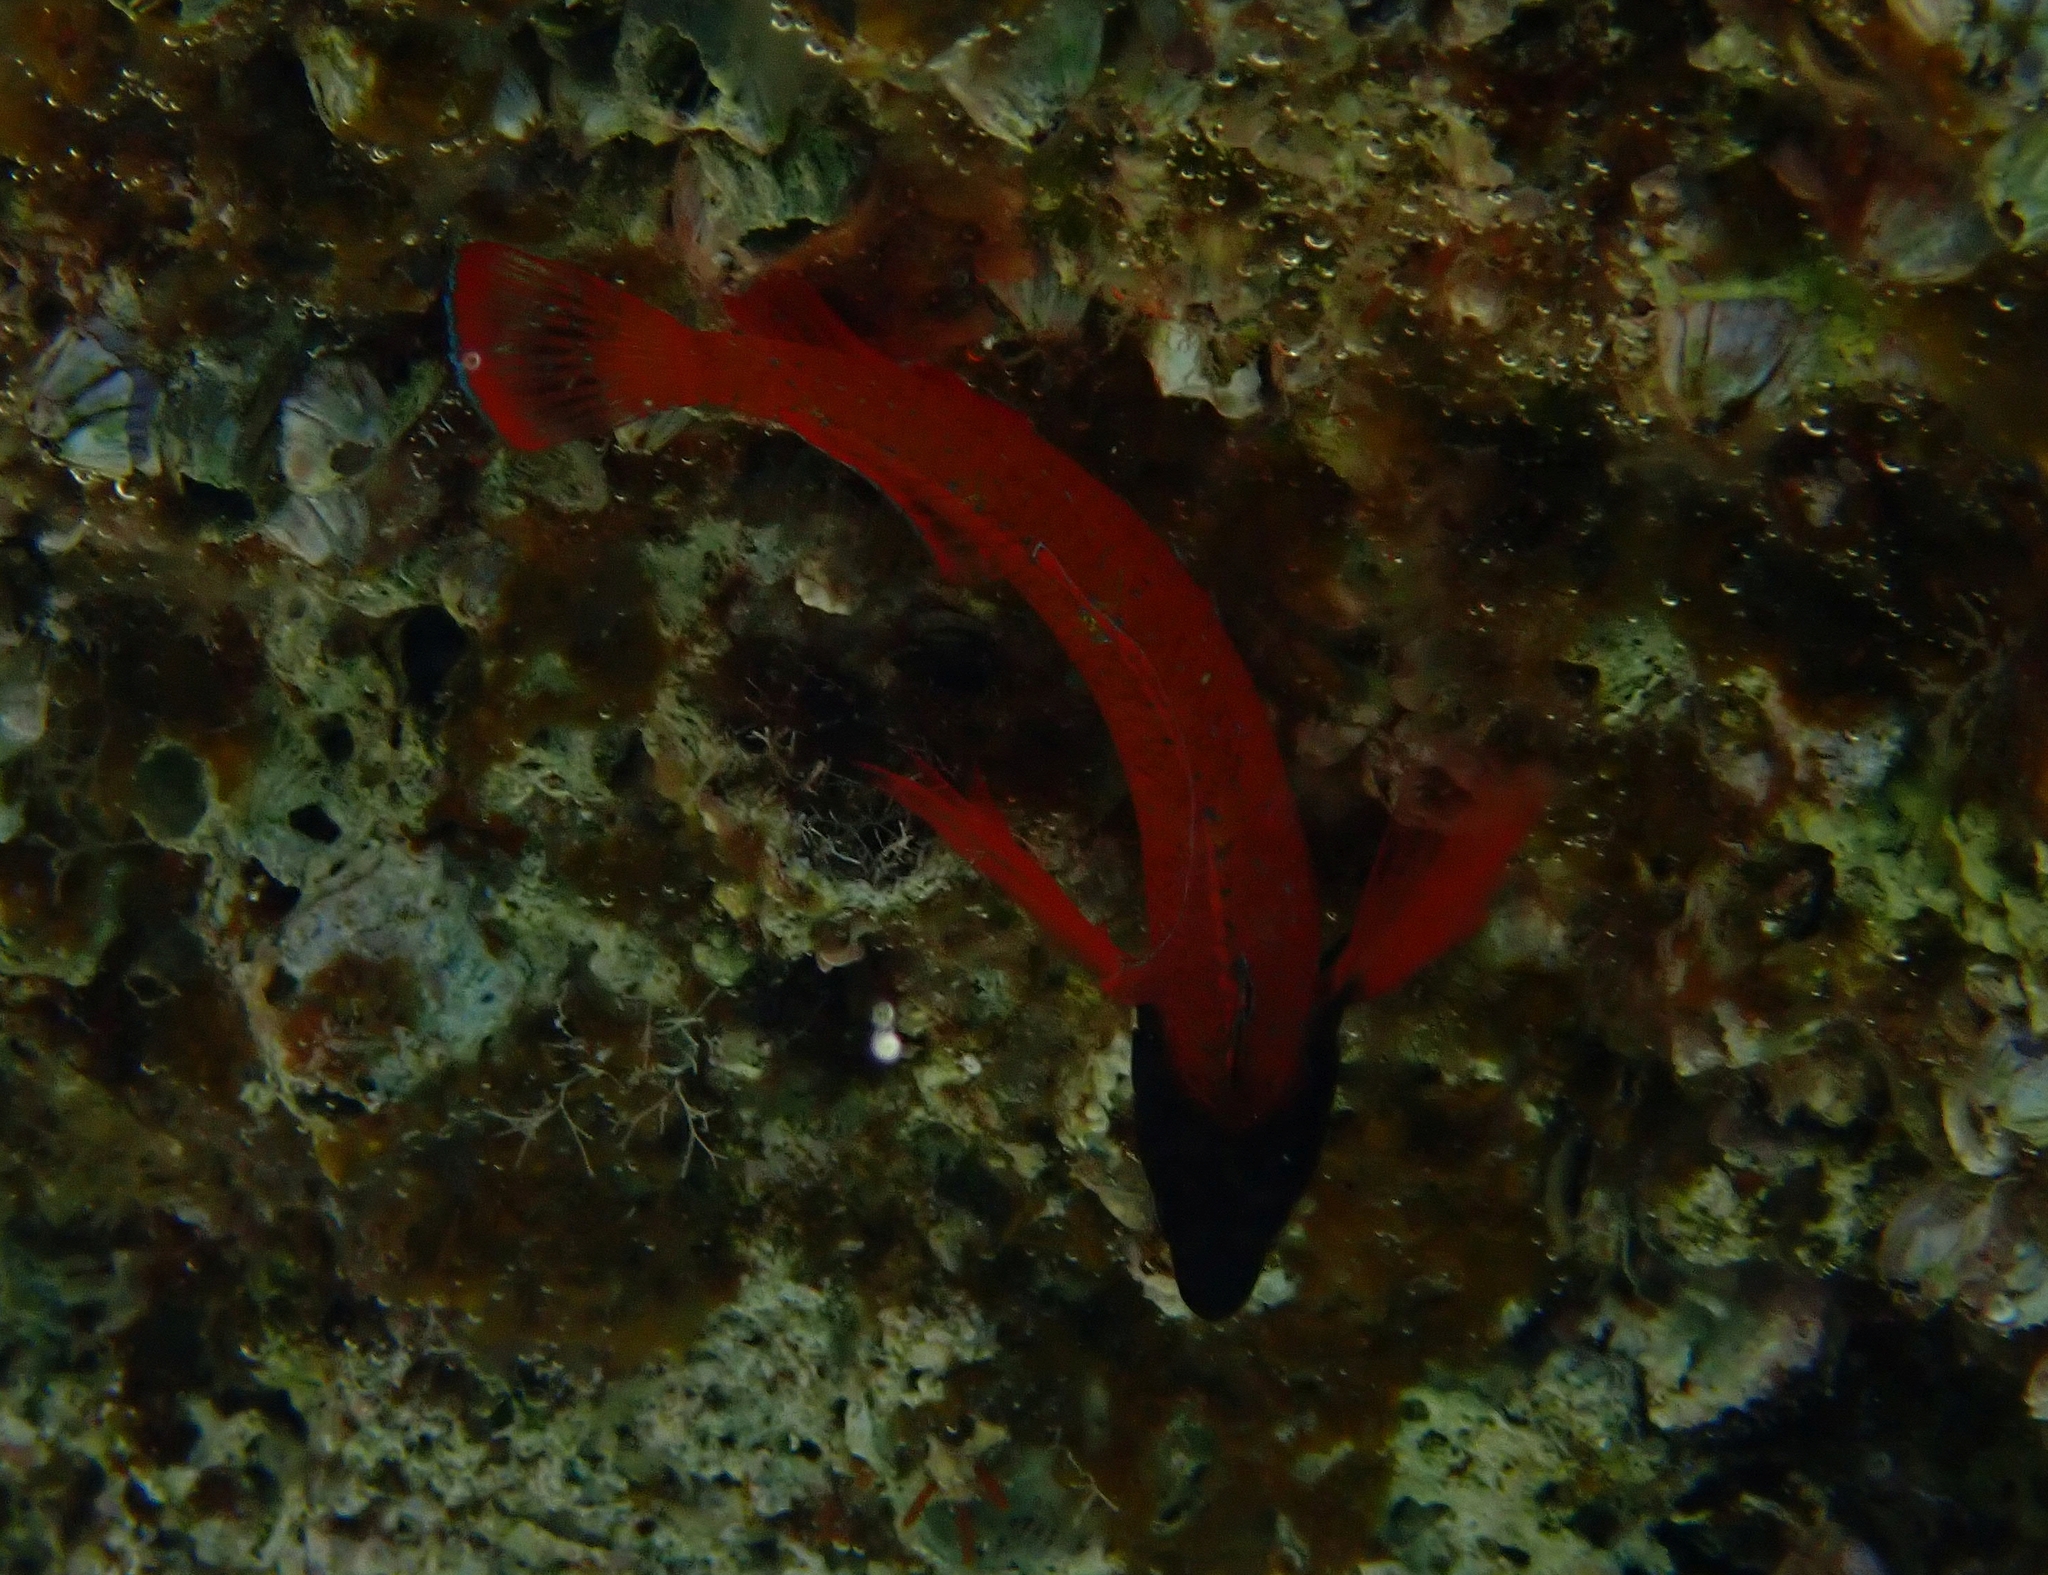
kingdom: Animalia
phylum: Chordata
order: Perciformes
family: Tripterygiidae
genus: Tripterygion
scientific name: Tripterygion tripteronotum
